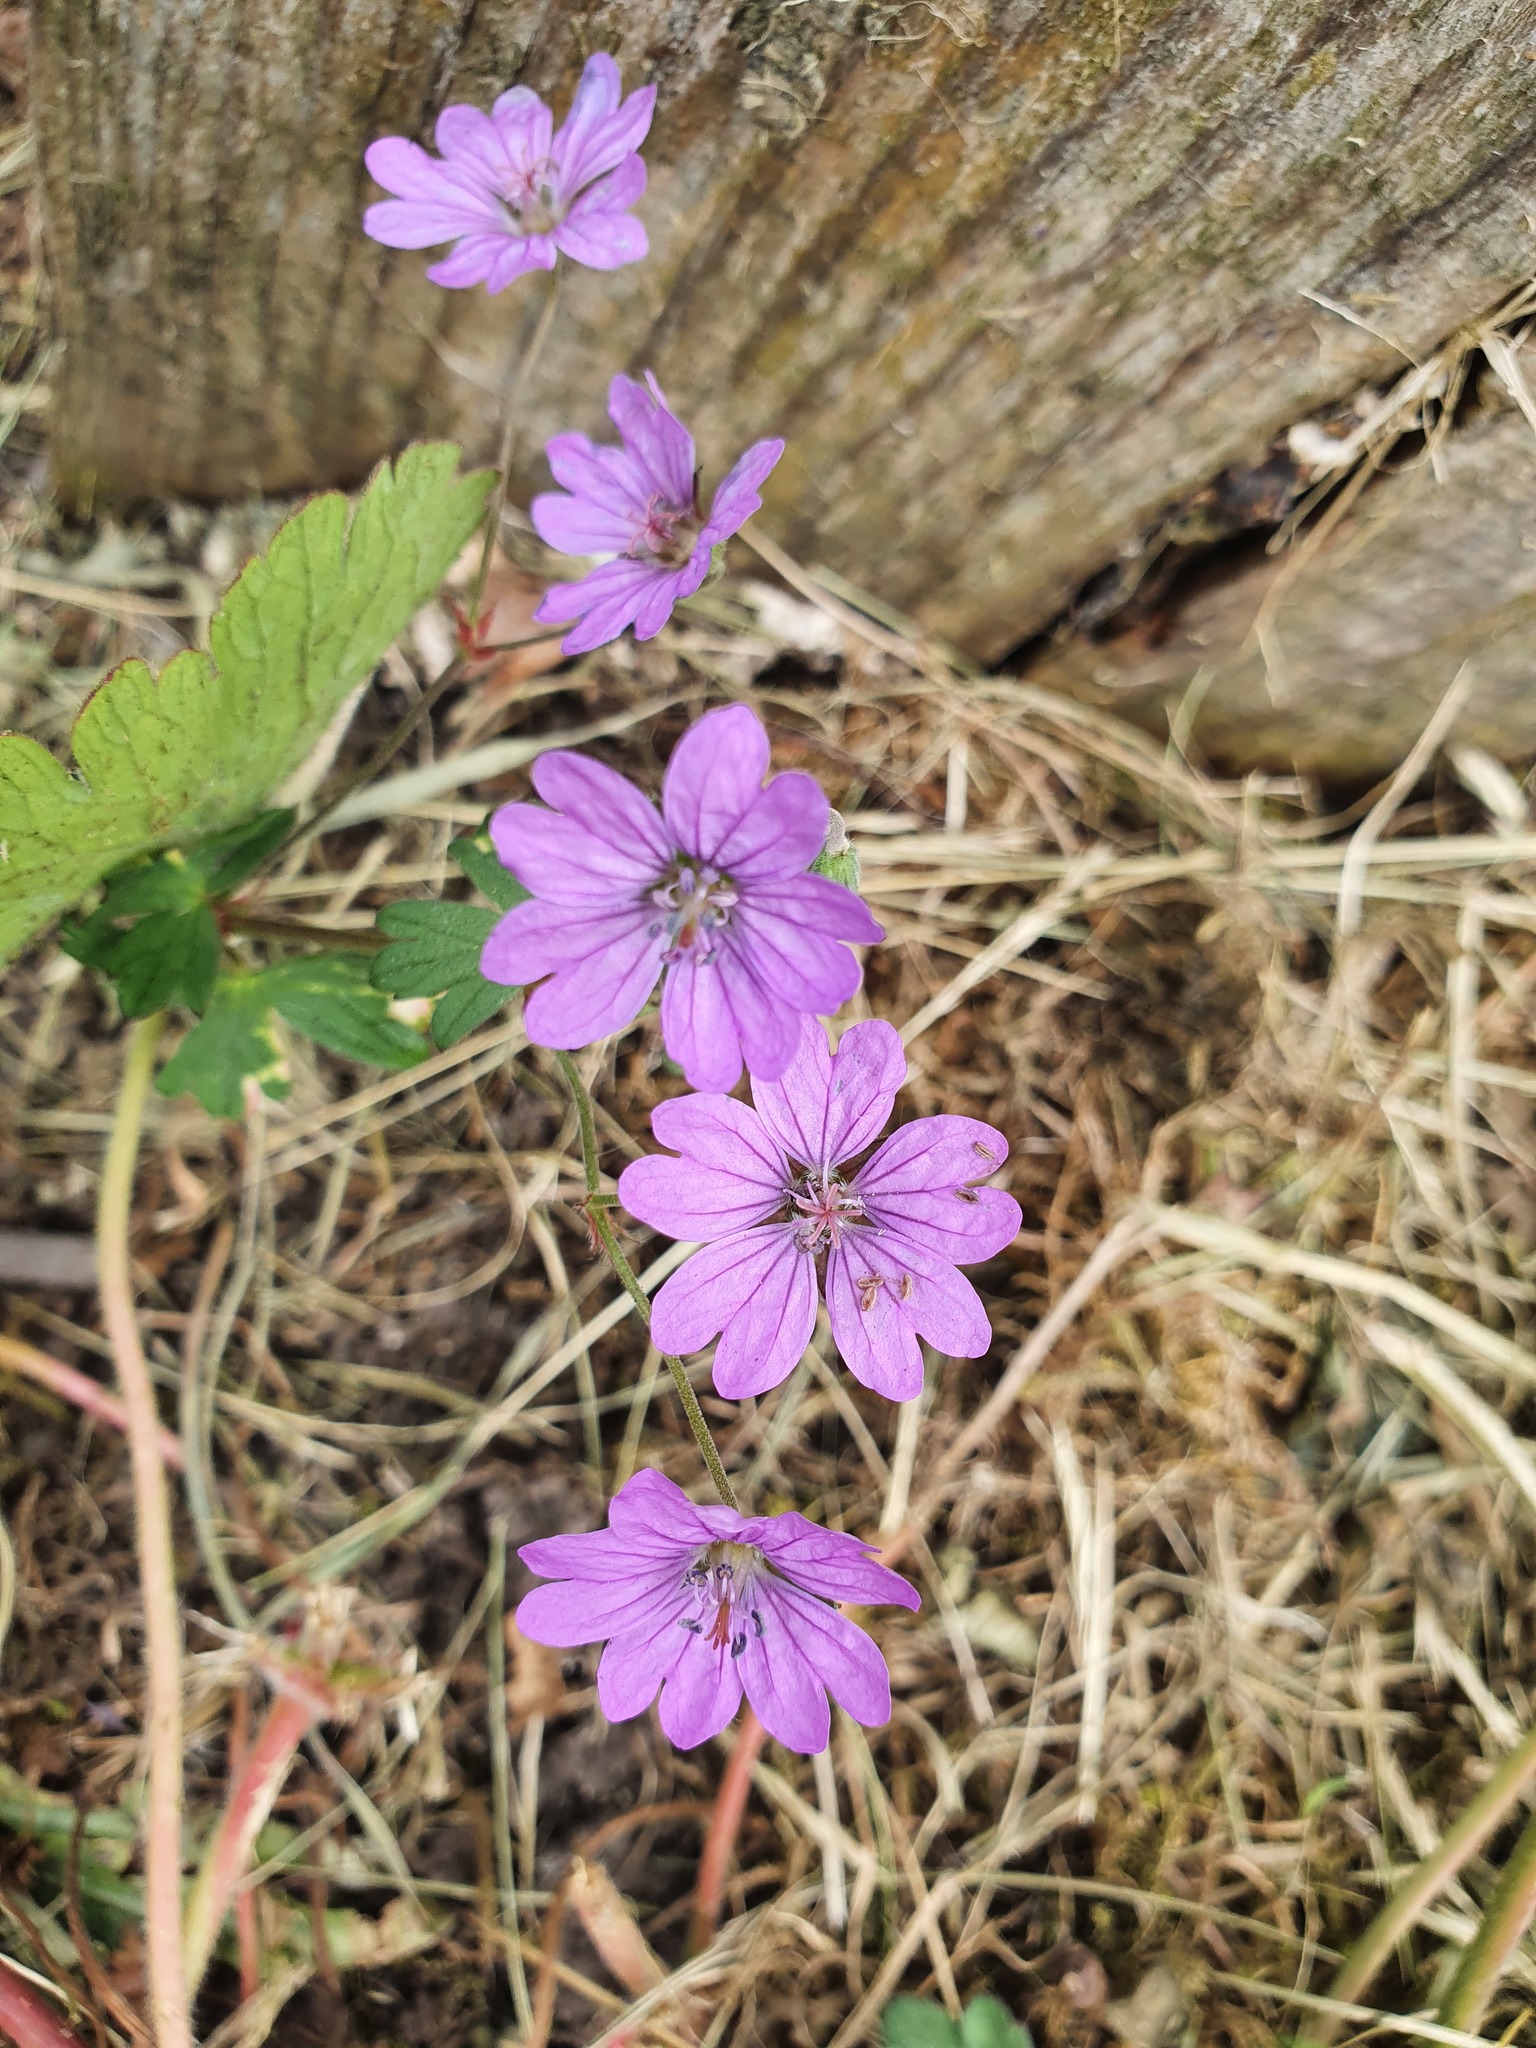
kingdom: Plantae
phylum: Tracheophyta
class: Magnoliopsida
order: Geraniales
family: Geraniaceae
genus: Geranium
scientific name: Geranium pyrenaicum
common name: Hedgerow crane's-bill
